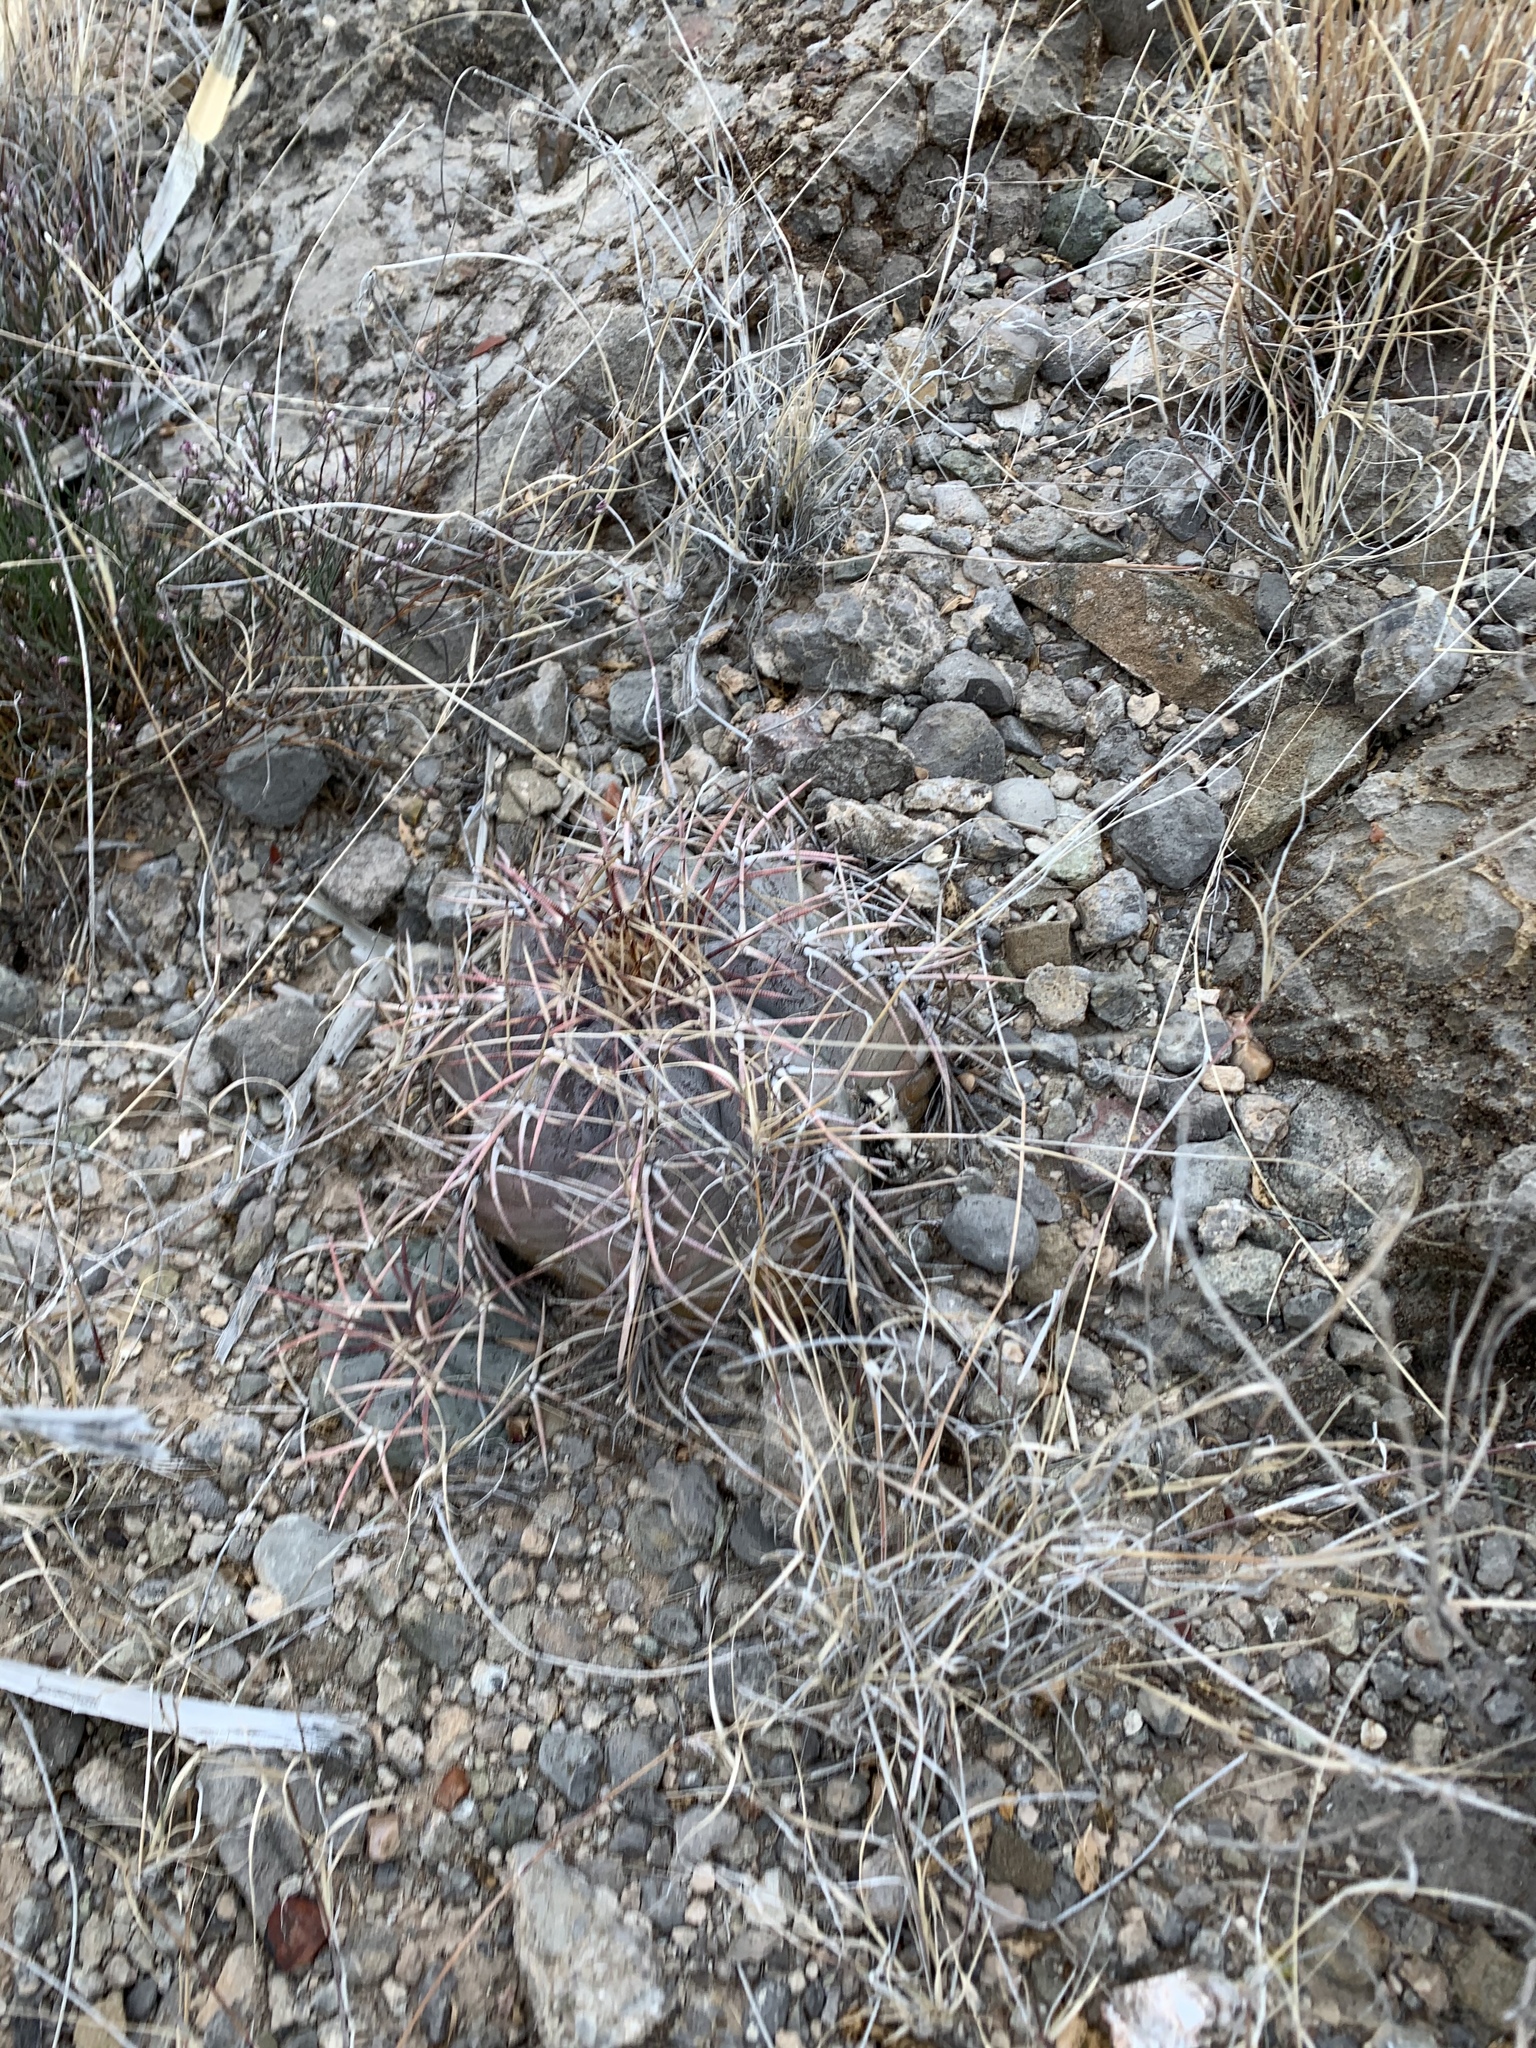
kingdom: Plantae
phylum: Tracheophyta
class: Magnoliopsida
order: Caryophyllales
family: Cactaceae
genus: Echinocactus
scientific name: Echinocactus horizonthalonius
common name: Devilshead
